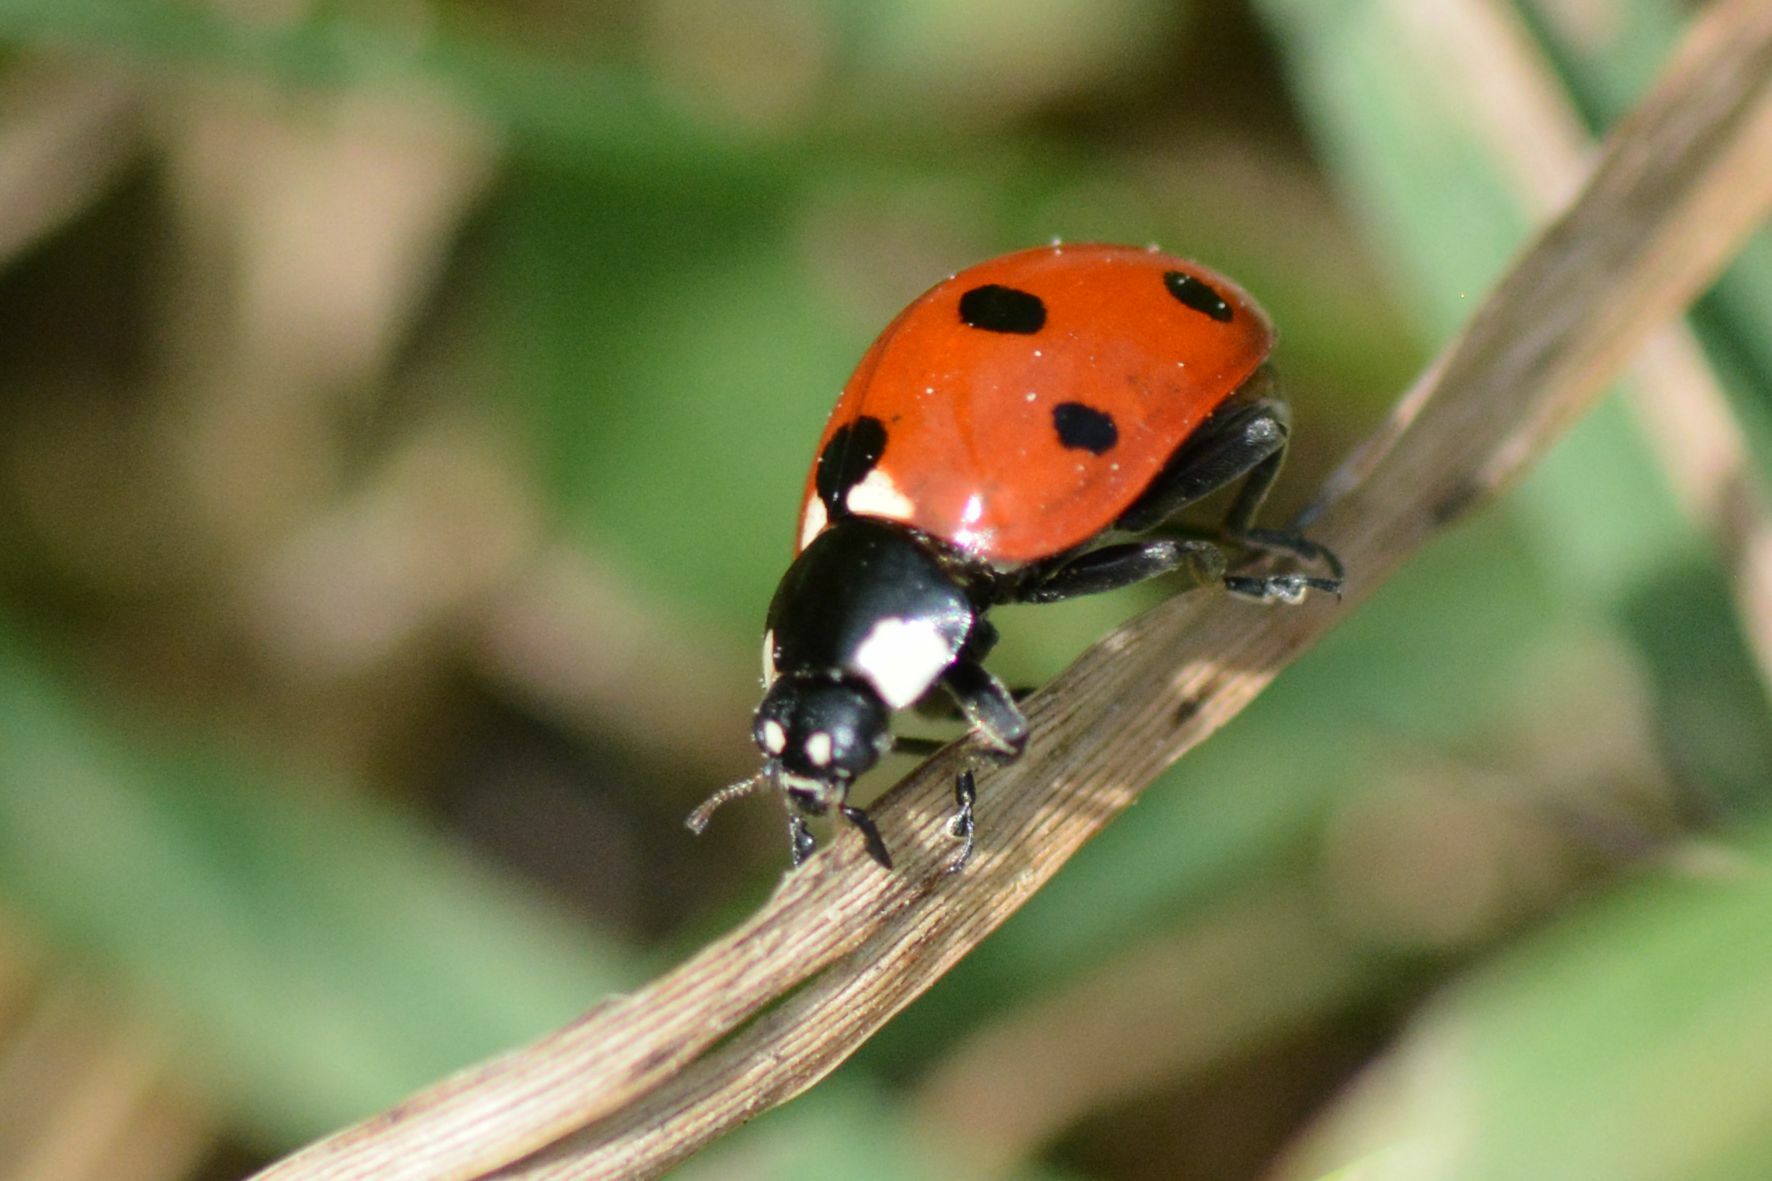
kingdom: Animalia
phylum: Arthropoda
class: Insecta
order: Coleoptera
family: Coccinellidae
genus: Coccinella
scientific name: Coccinella septempunctata
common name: Sevenspotted lady beetle
